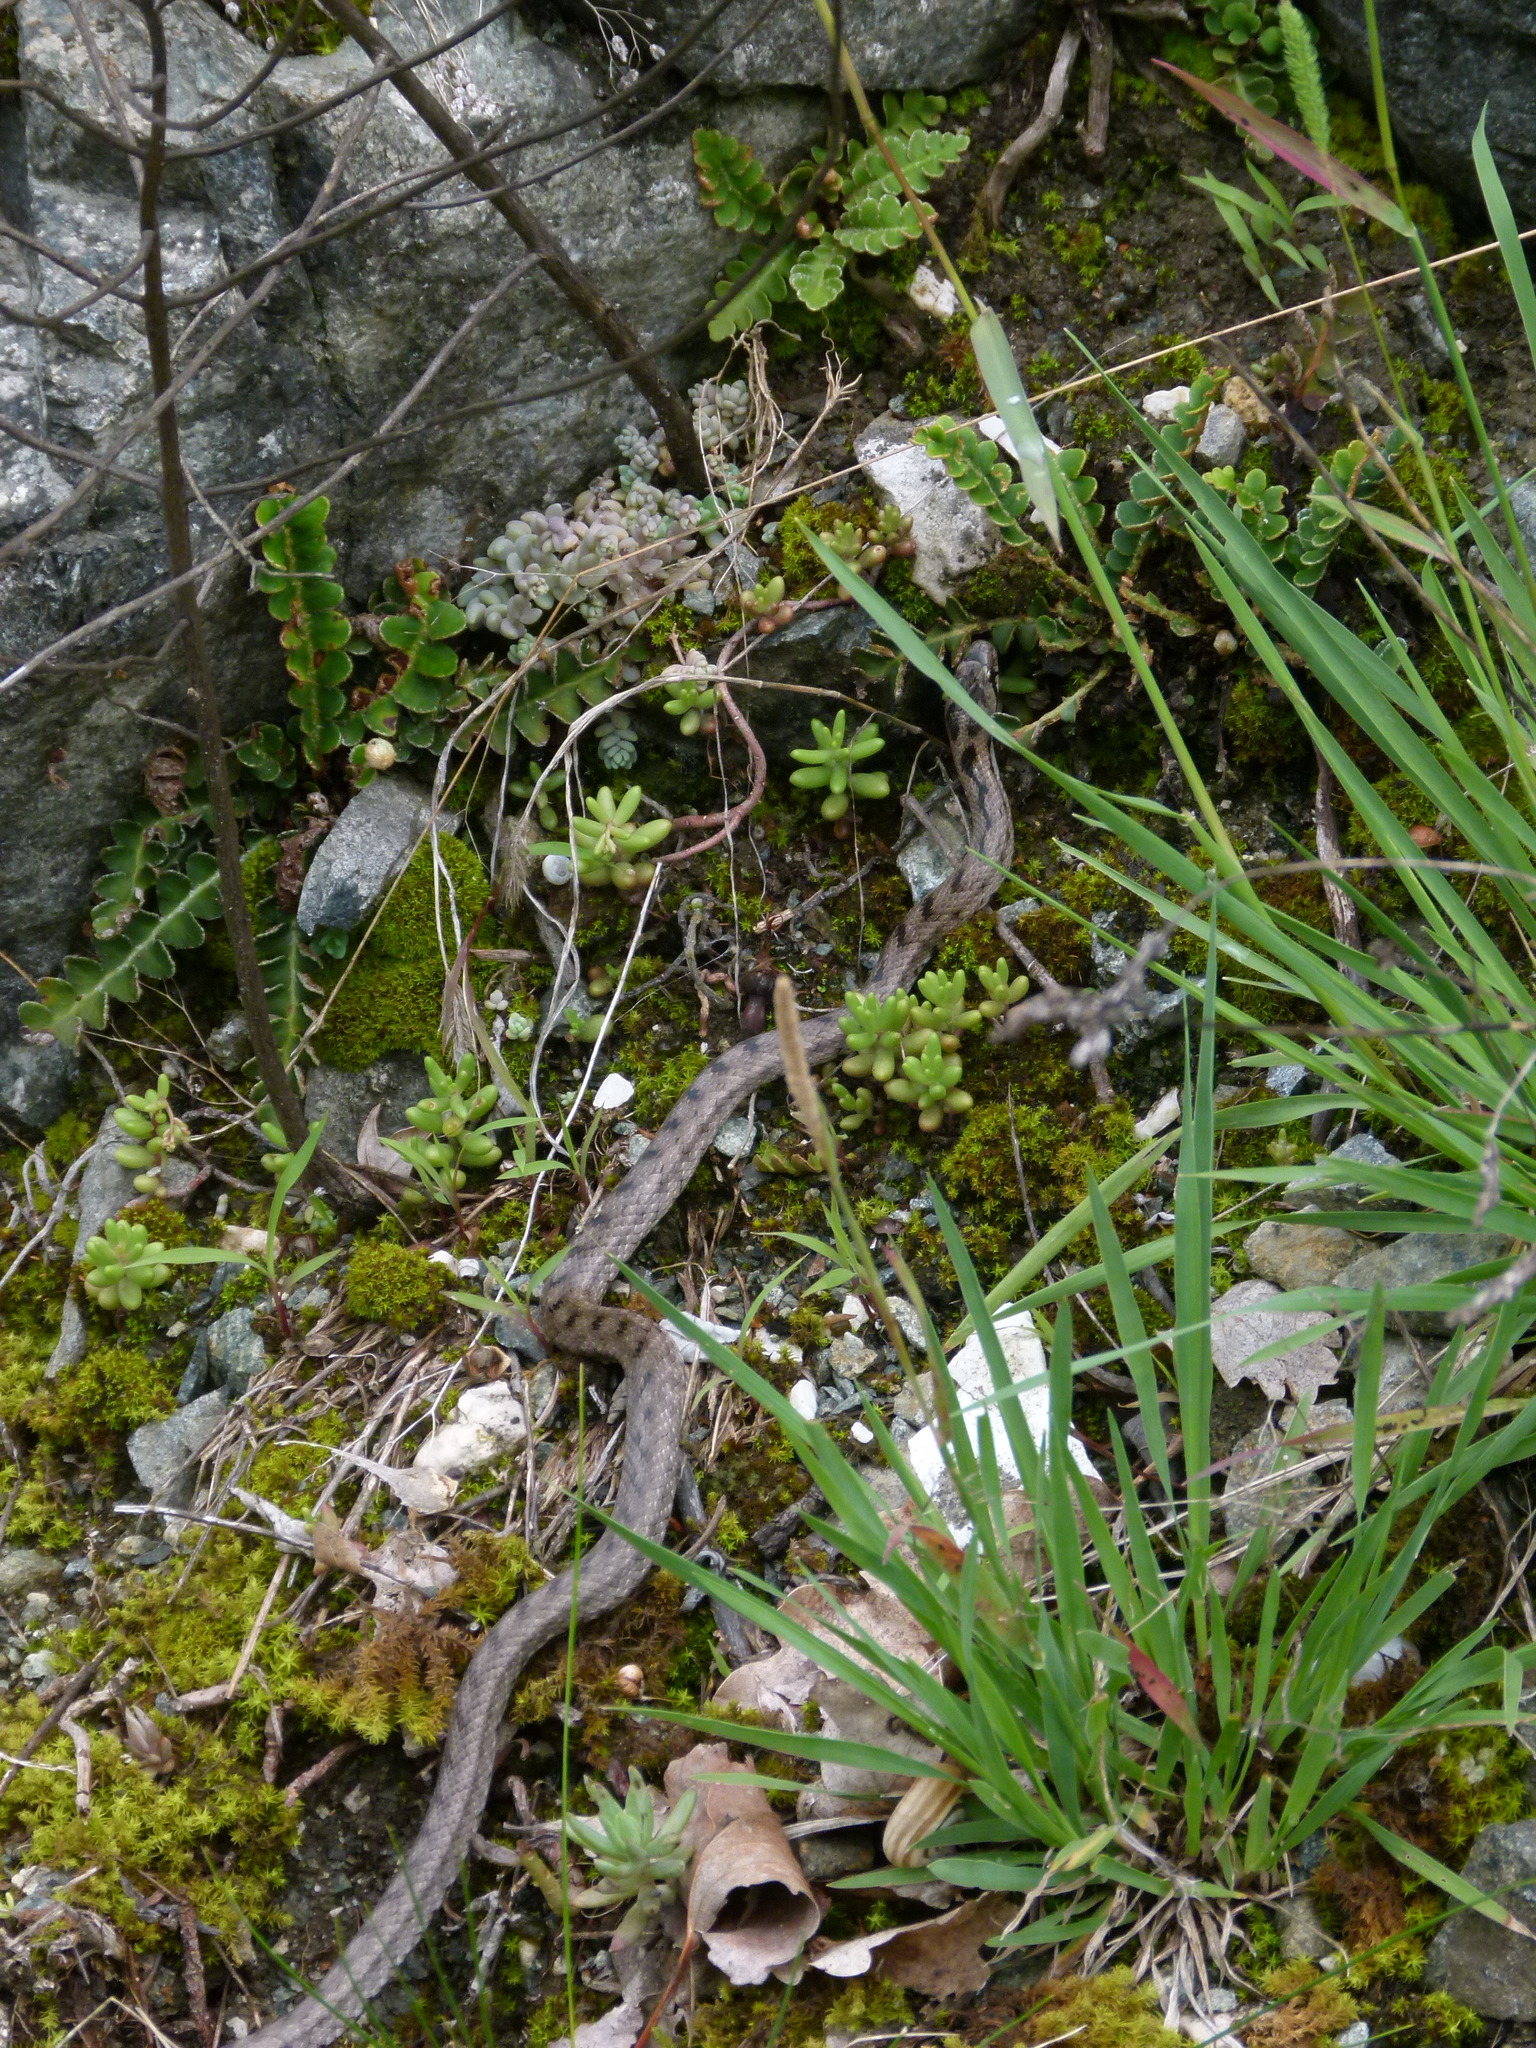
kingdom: Animalia
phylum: Chordata
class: Squamata
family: Colubridae
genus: Coronella
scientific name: Coronella girondica
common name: Southern smooth snake
